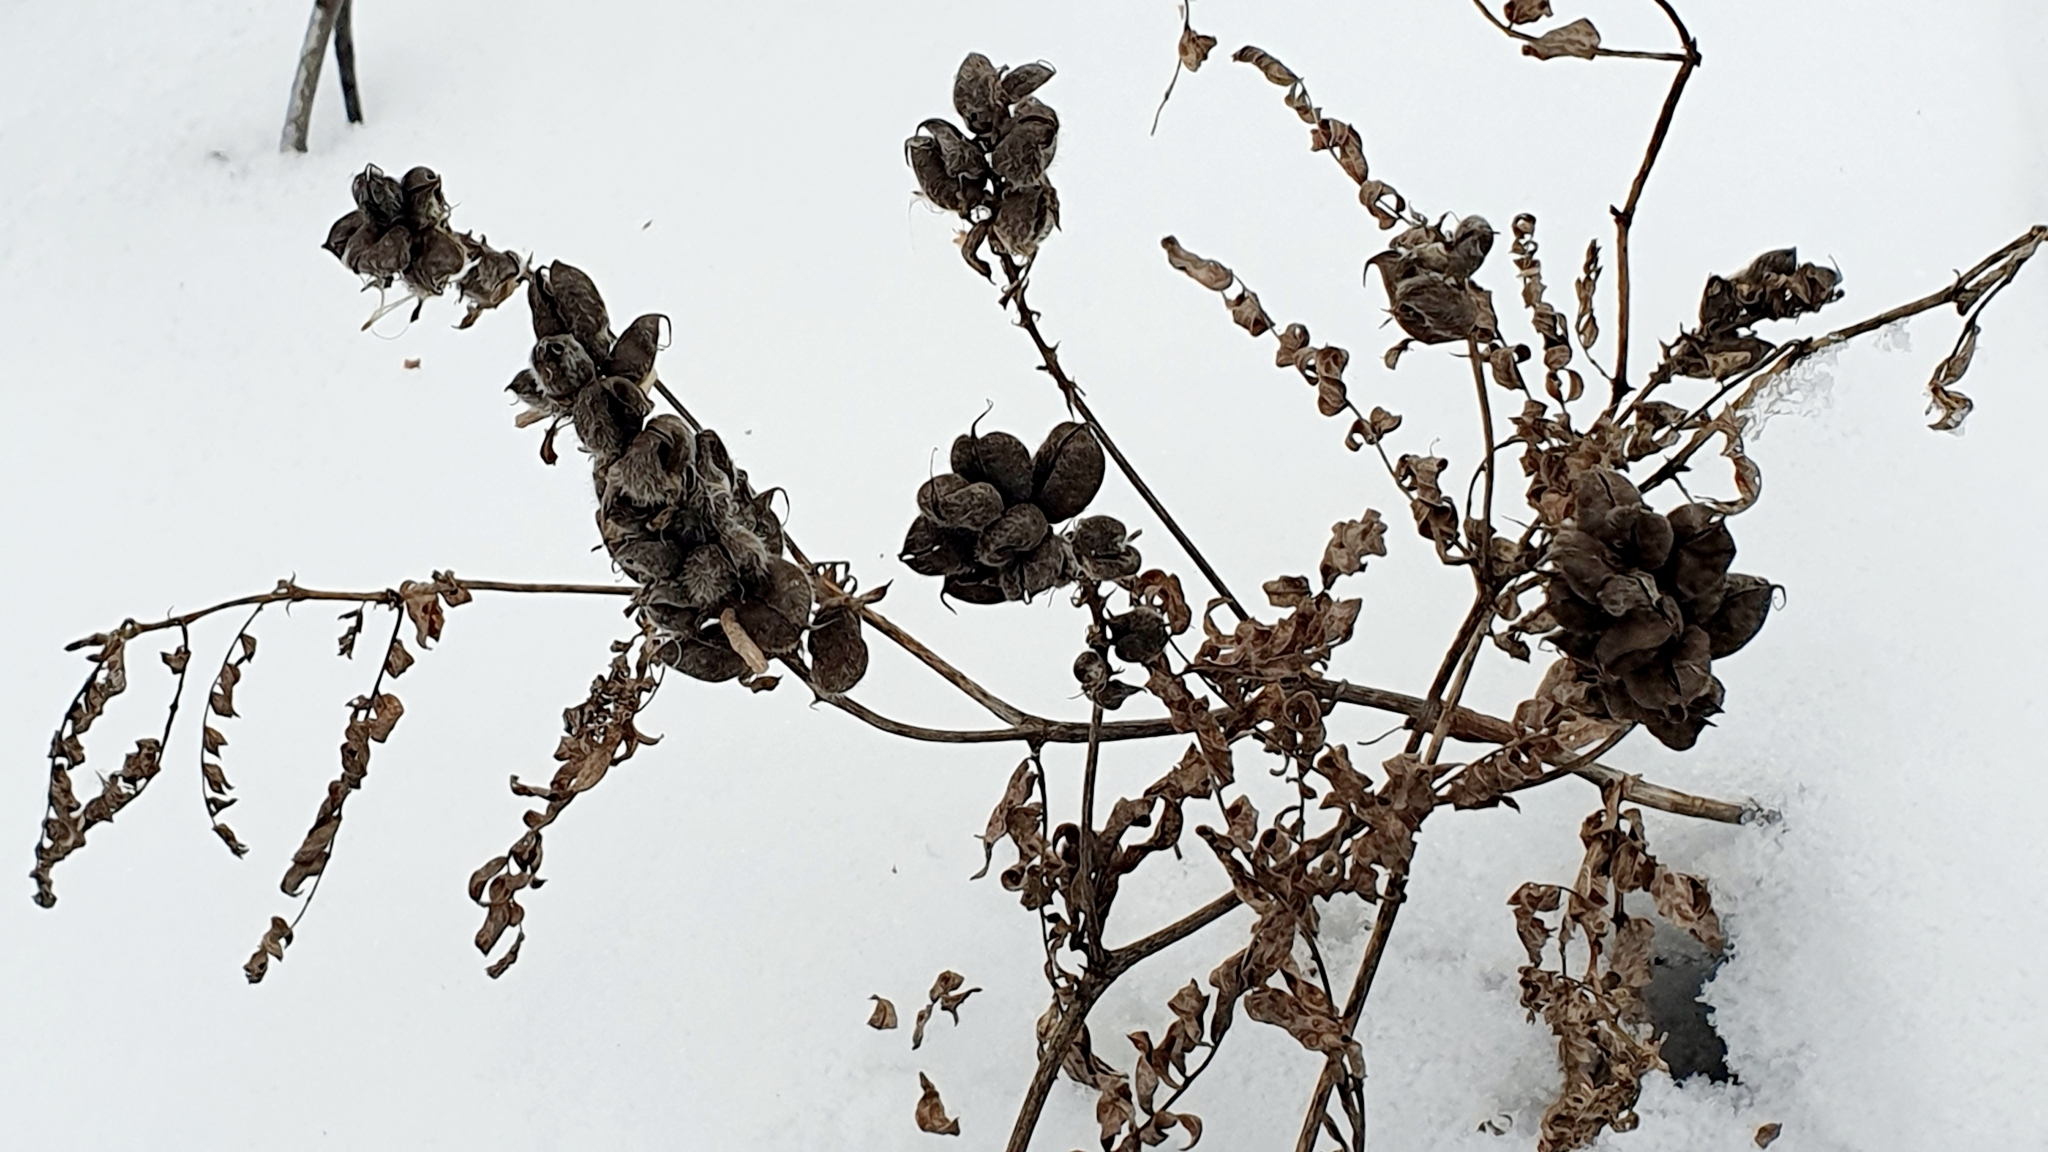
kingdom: Plantae
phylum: Tracheophyta
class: Magnoliopsida
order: Fabales
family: Fabaceae
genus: Astragalus
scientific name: Astragalus cicer
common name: Chick-pea milk-vetch
